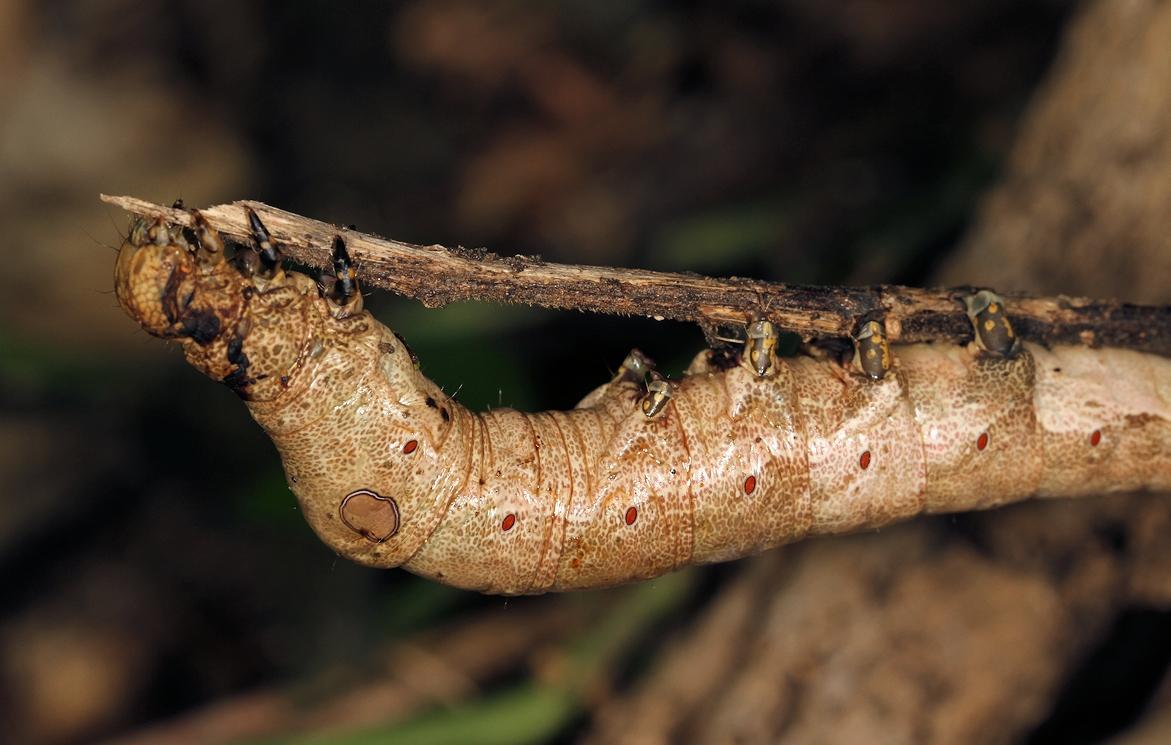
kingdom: Animalia
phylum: Arthropoda
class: Insecta
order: Lepidoptera
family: Erebidae
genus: Erebus
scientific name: Erebus walkeri
